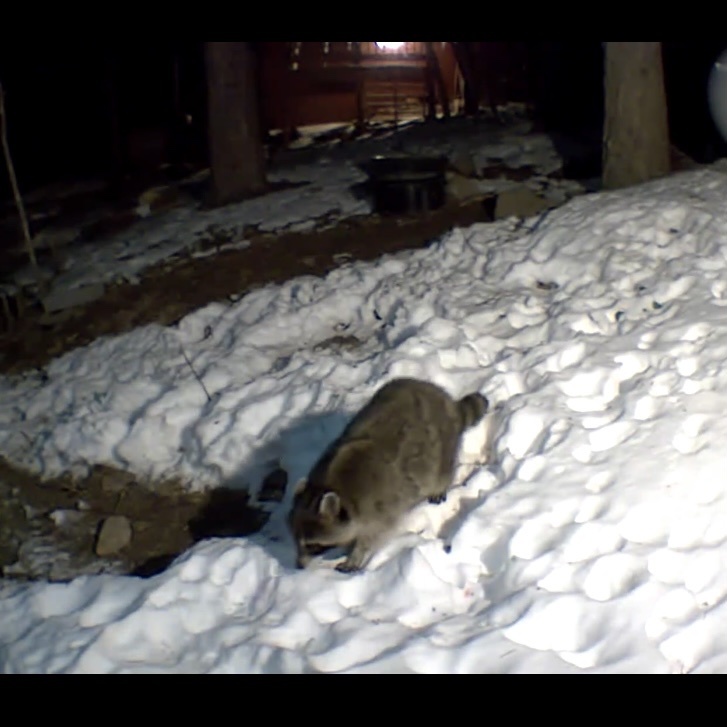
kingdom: Animalia
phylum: Chordata
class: Mammalia
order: Carnivora
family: Procyonidae
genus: Procyon
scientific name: Procyon lotor
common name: Raccoon
